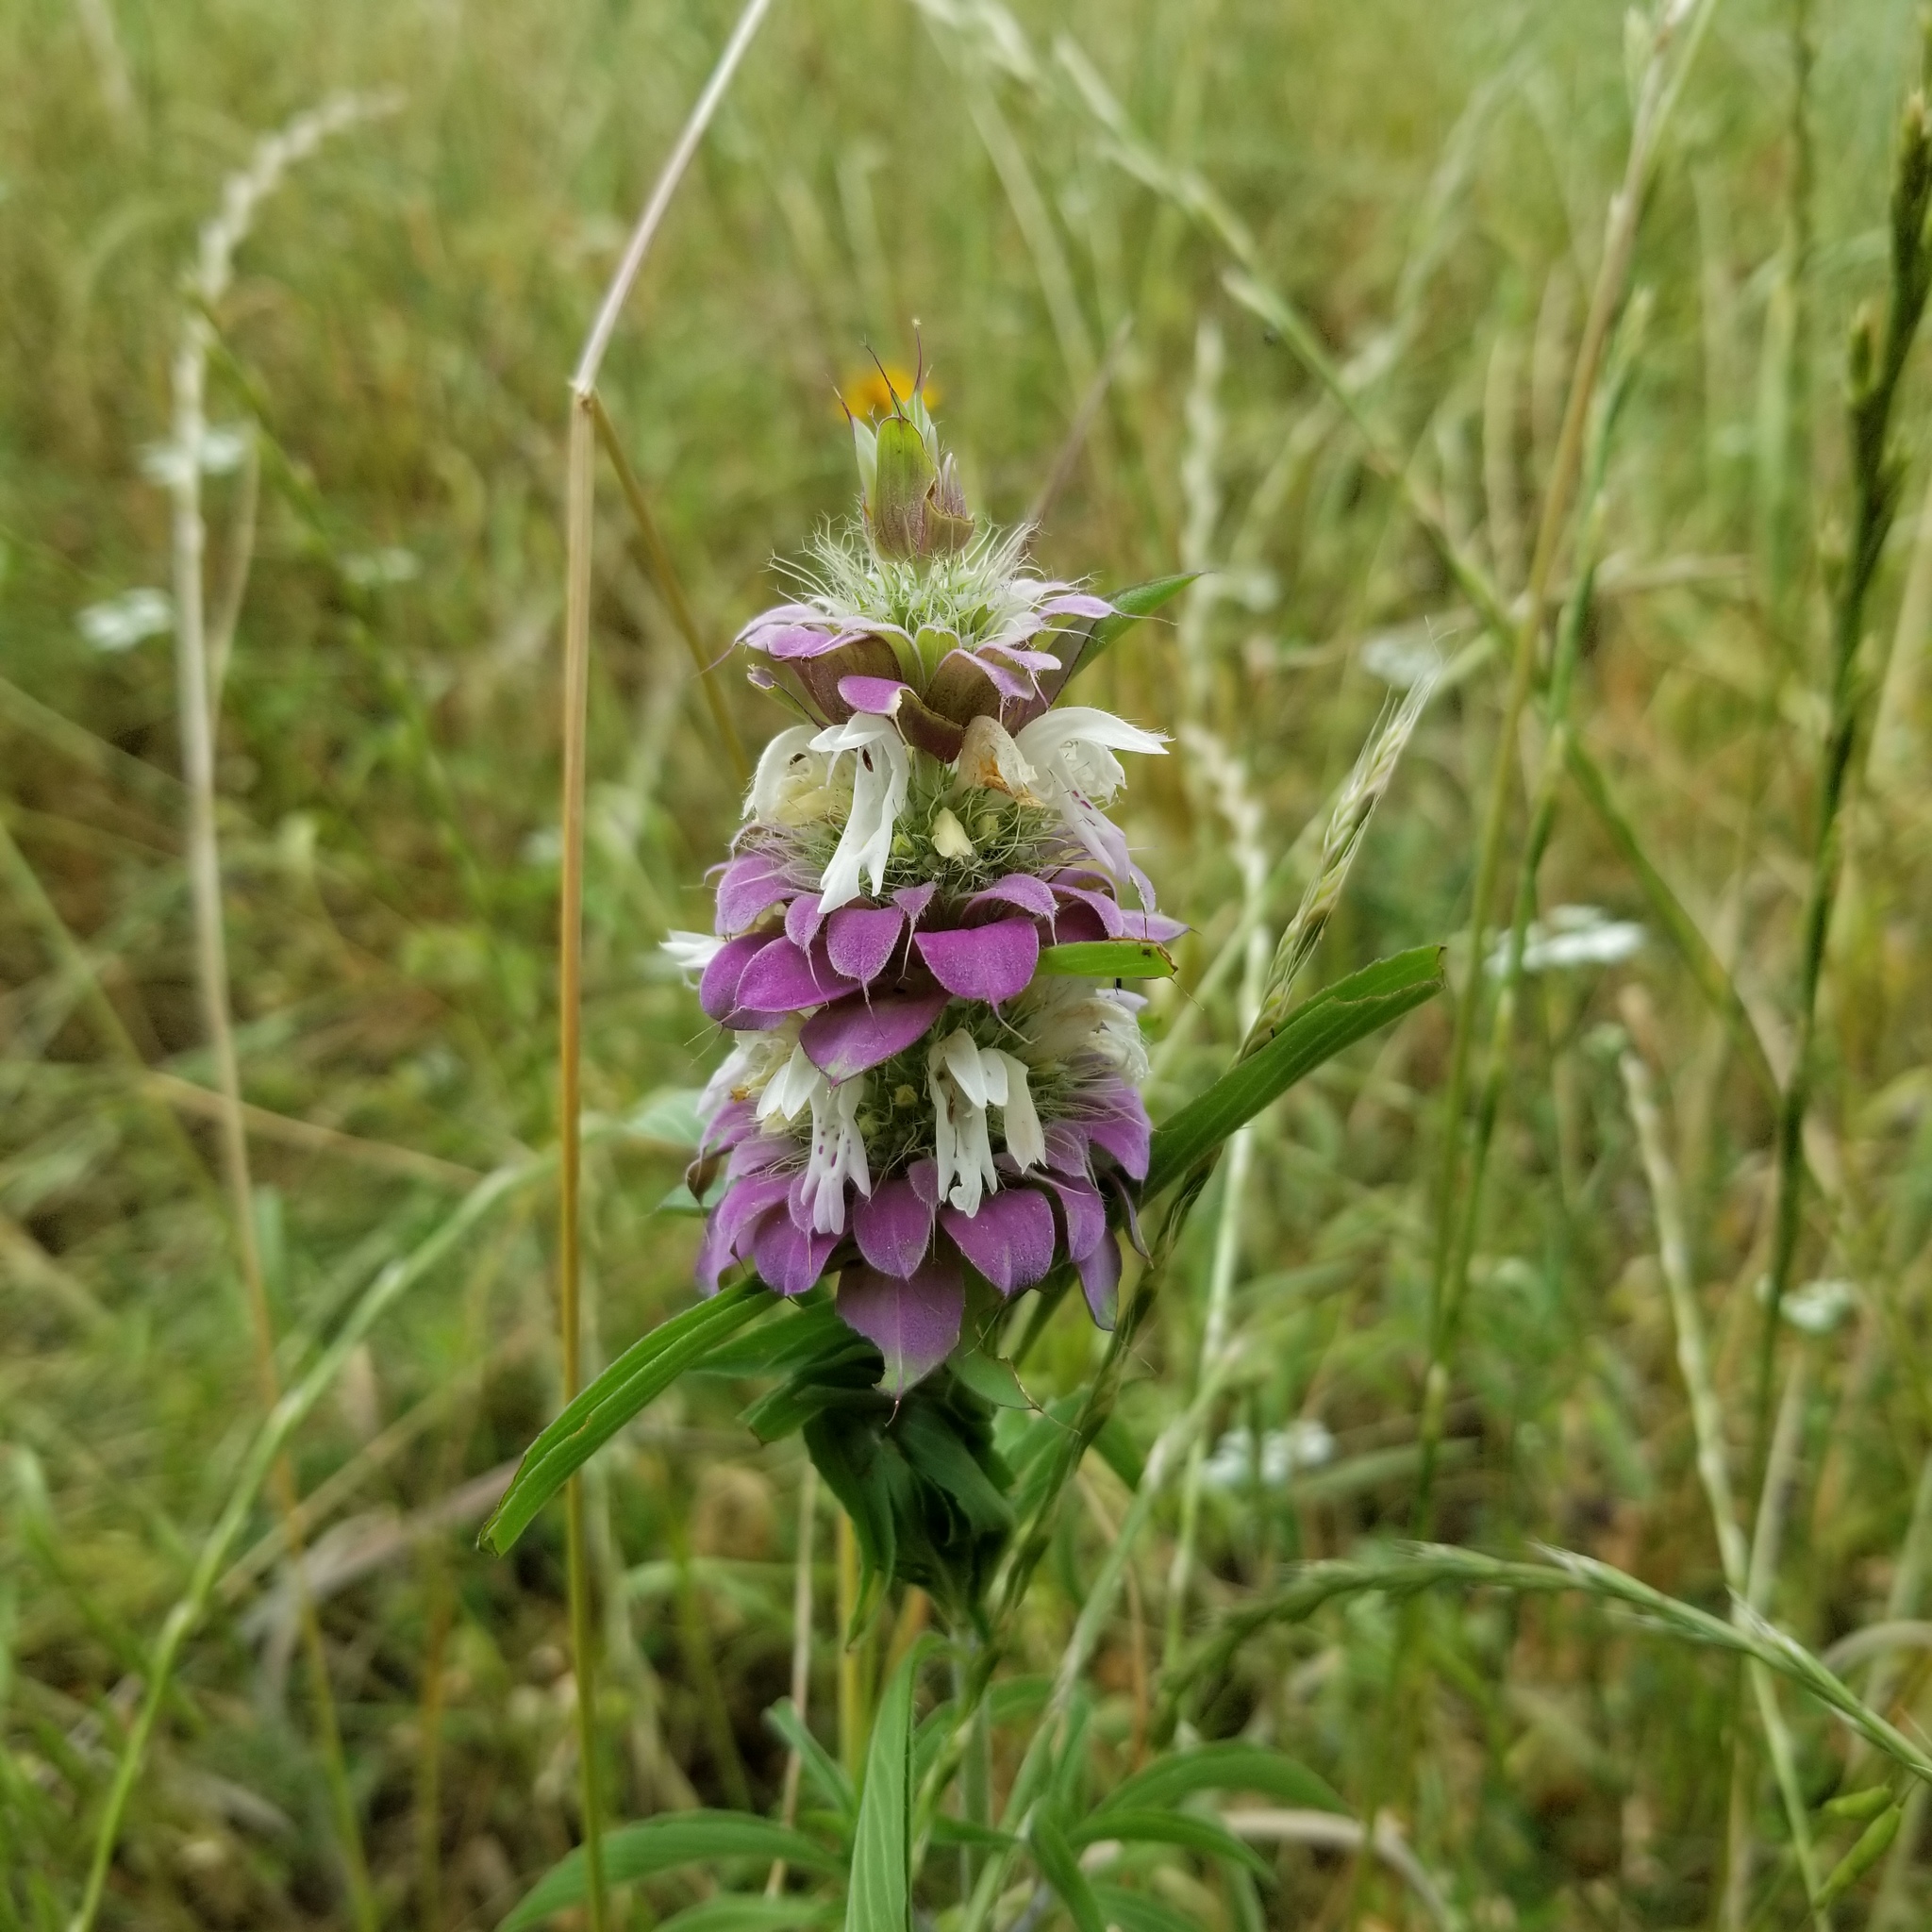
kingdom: Plantae
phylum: Tracheophyta
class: Magnoliopsida
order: Lamiales
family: Lamiaceae
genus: Monarda
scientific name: Monarda citriodora
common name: Lemon beebalm
